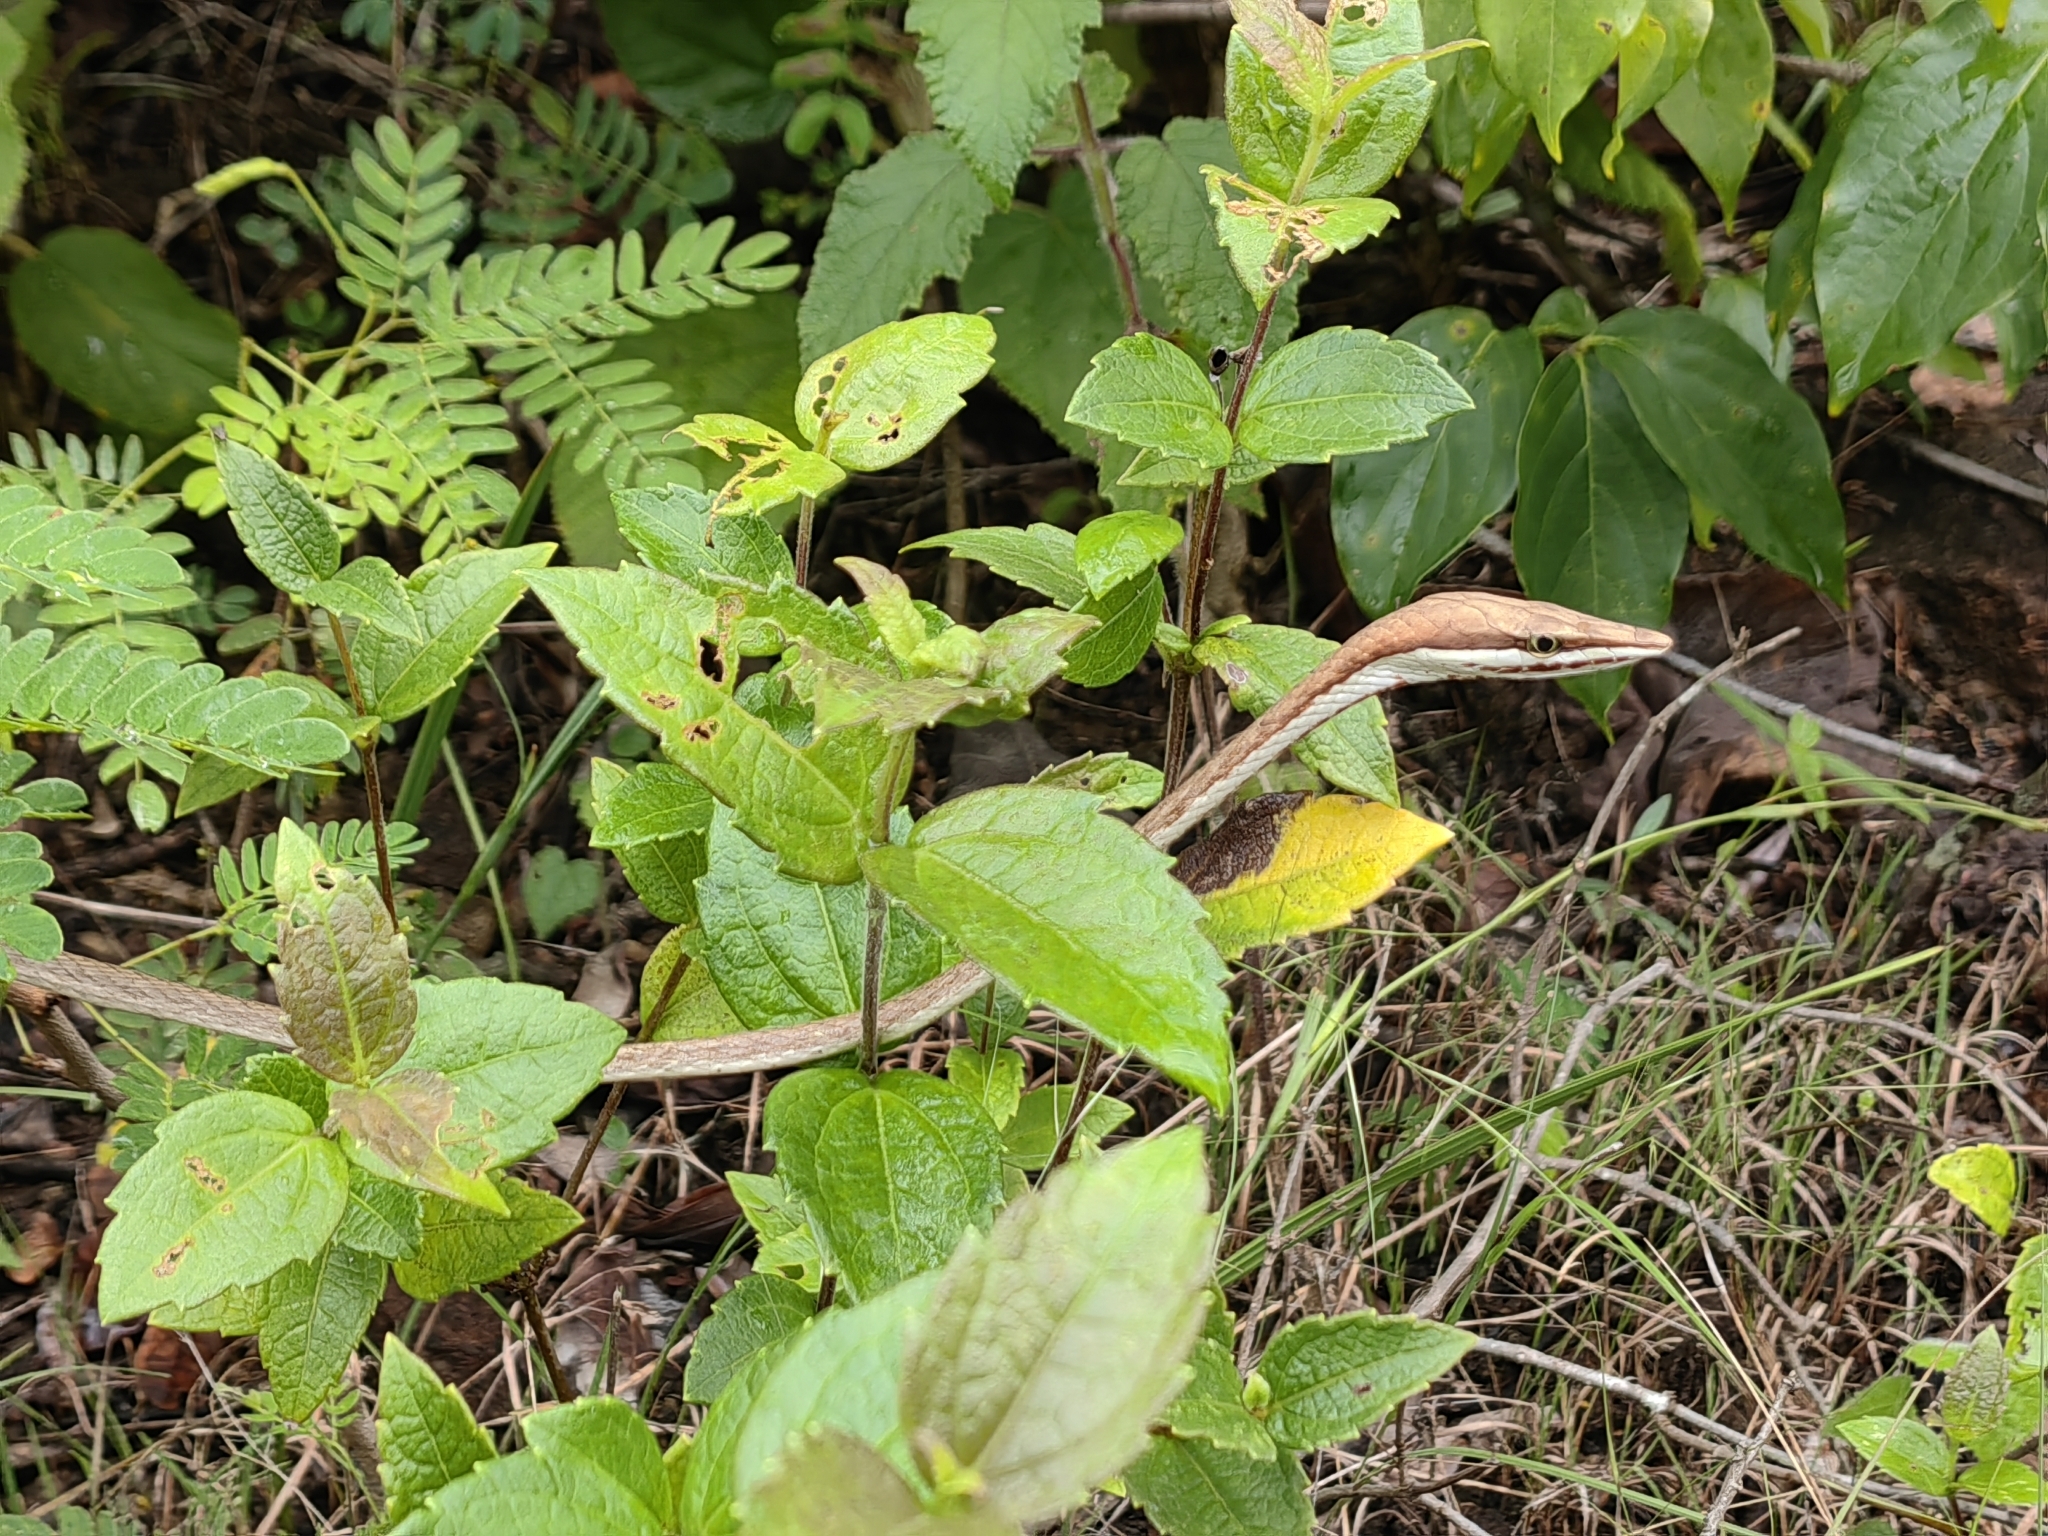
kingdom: Animalia
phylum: Chordata
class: Squamata
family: Colubridae
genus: Oxybelis
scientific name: Oxybelis koehleri
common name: Köhler’s vine snake
